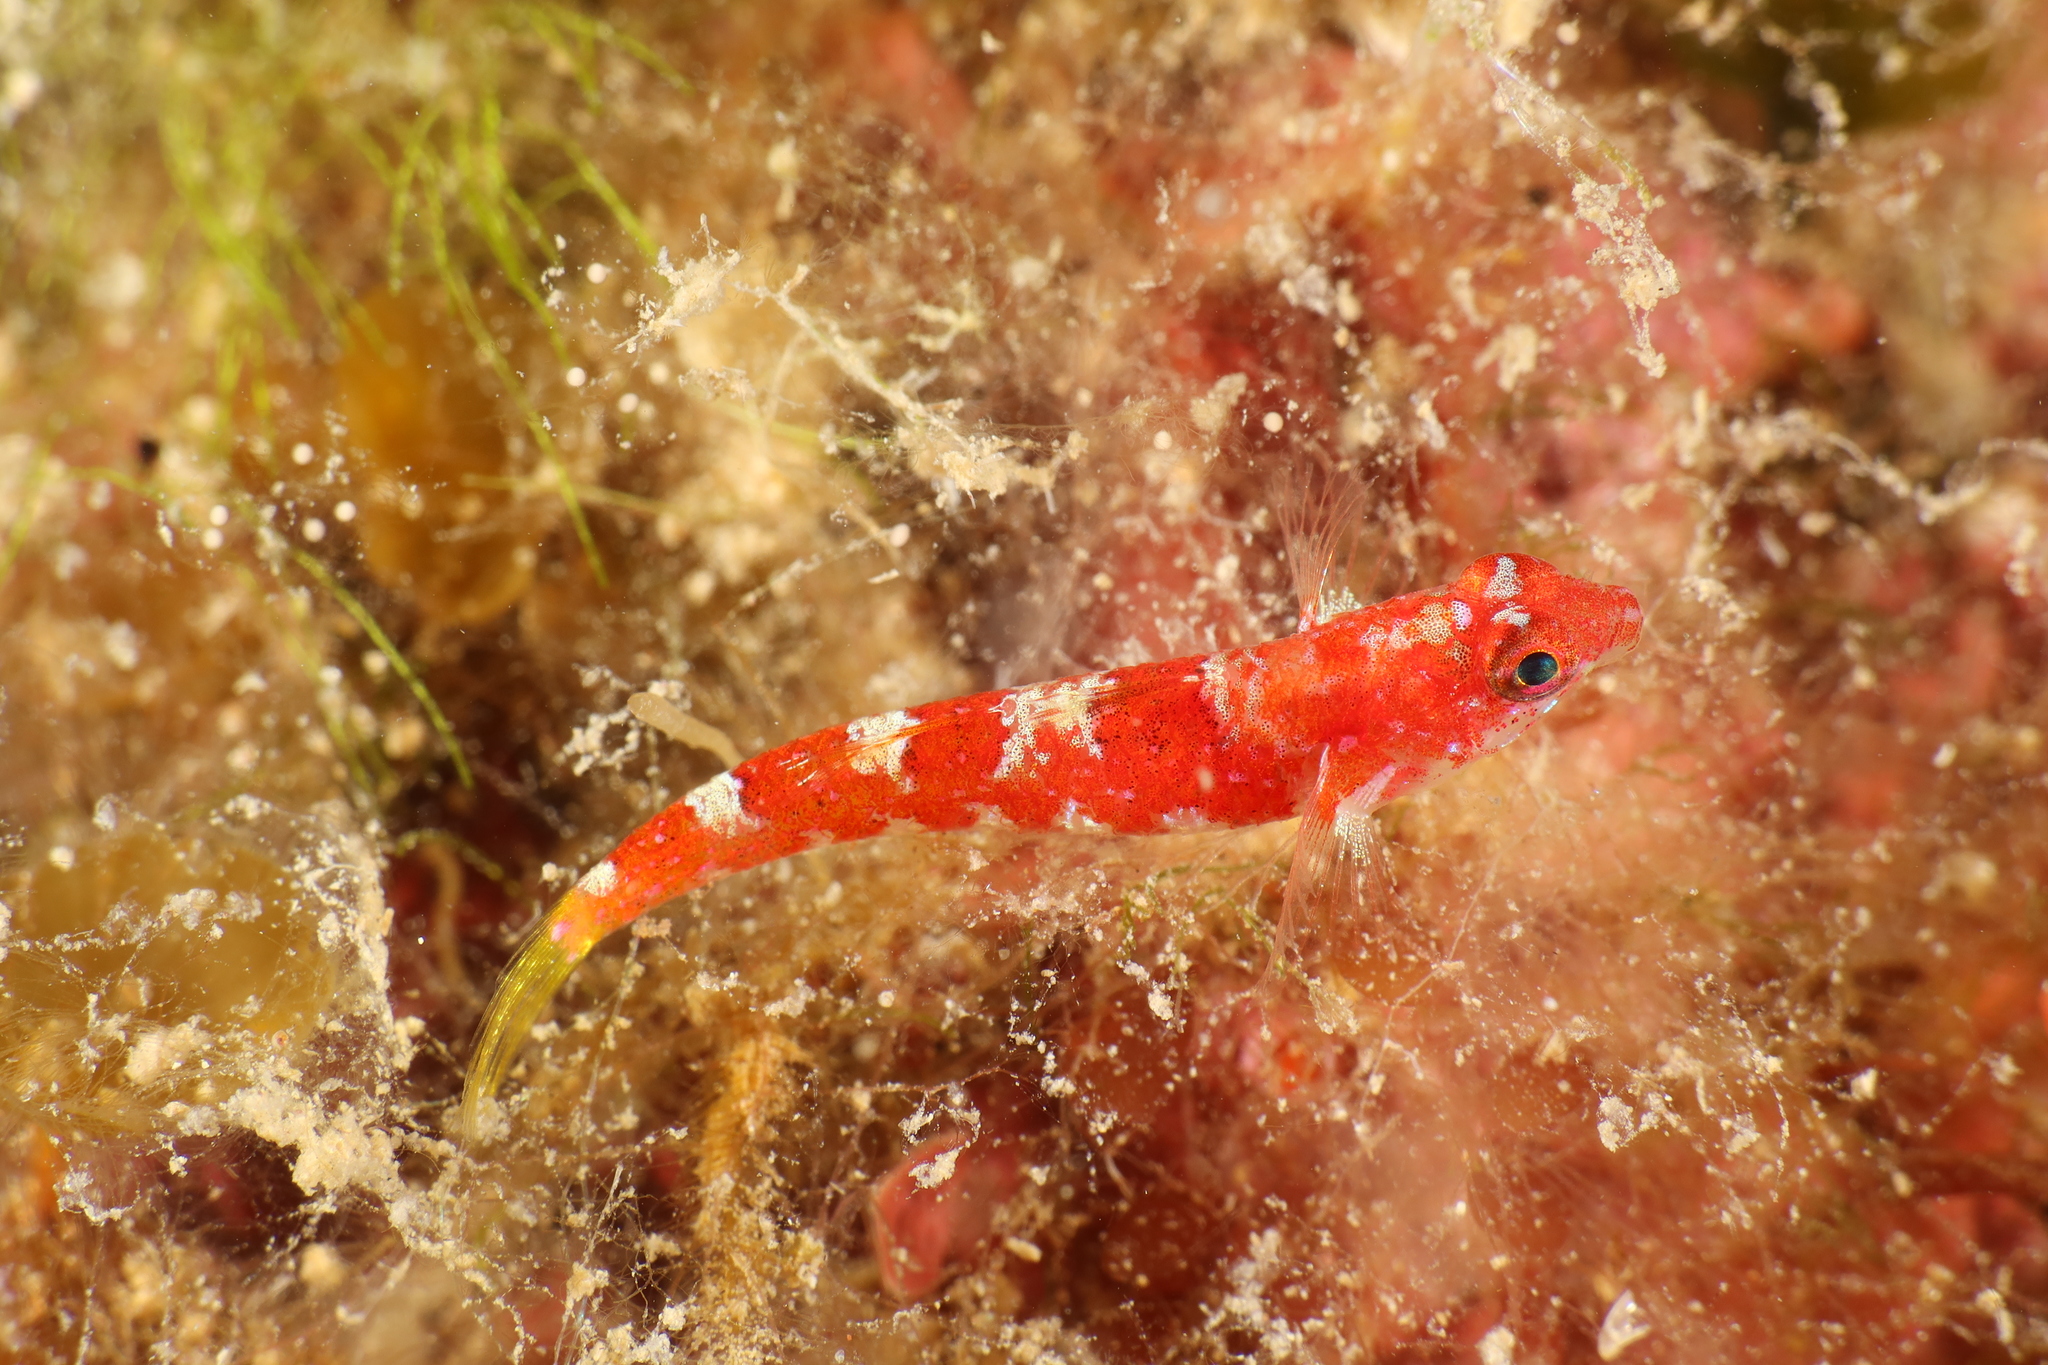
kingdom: Animalia
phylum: Chordata
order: Perciformes
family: Gobiidae
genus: Speleogobius
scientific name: Speleogobius trigloides
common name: Grotto goby
